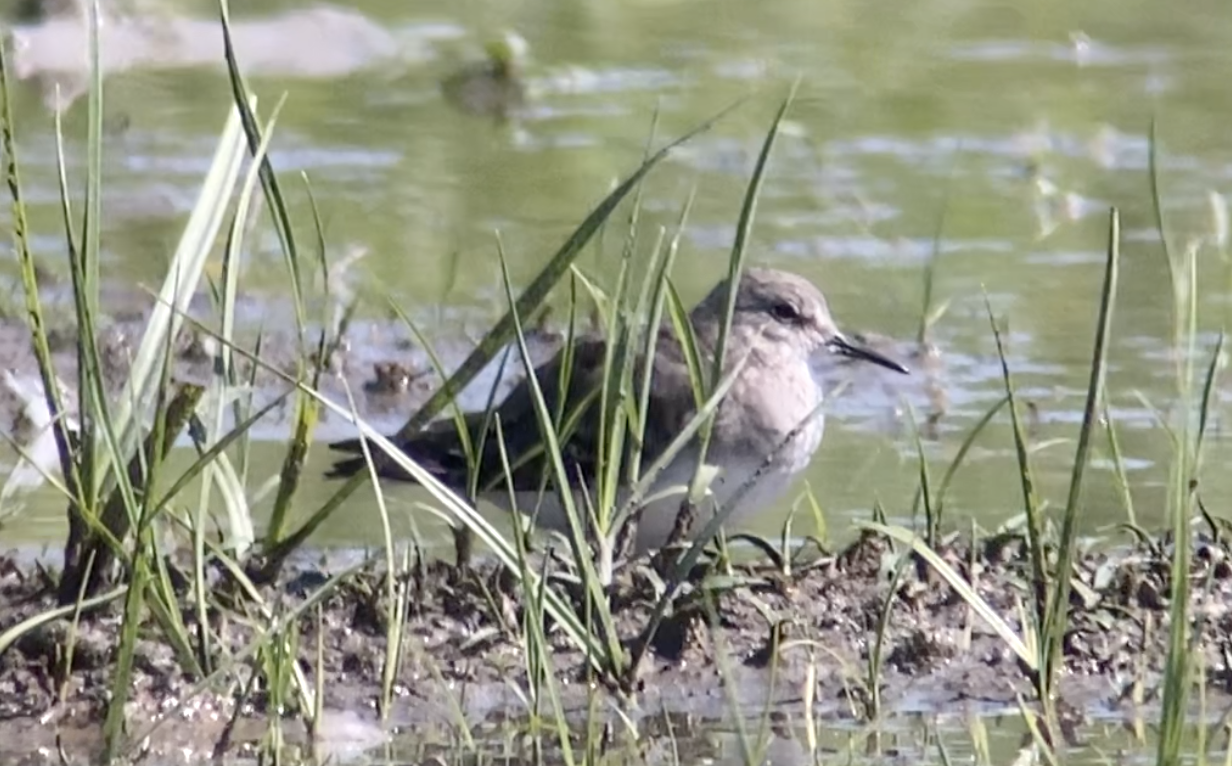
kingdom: Animalia
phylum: Chordata
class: Aves
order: Charadriiformes
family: Scolopacidae
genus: Calidris
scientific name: Calidris temminckii
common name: Temminck's stint
